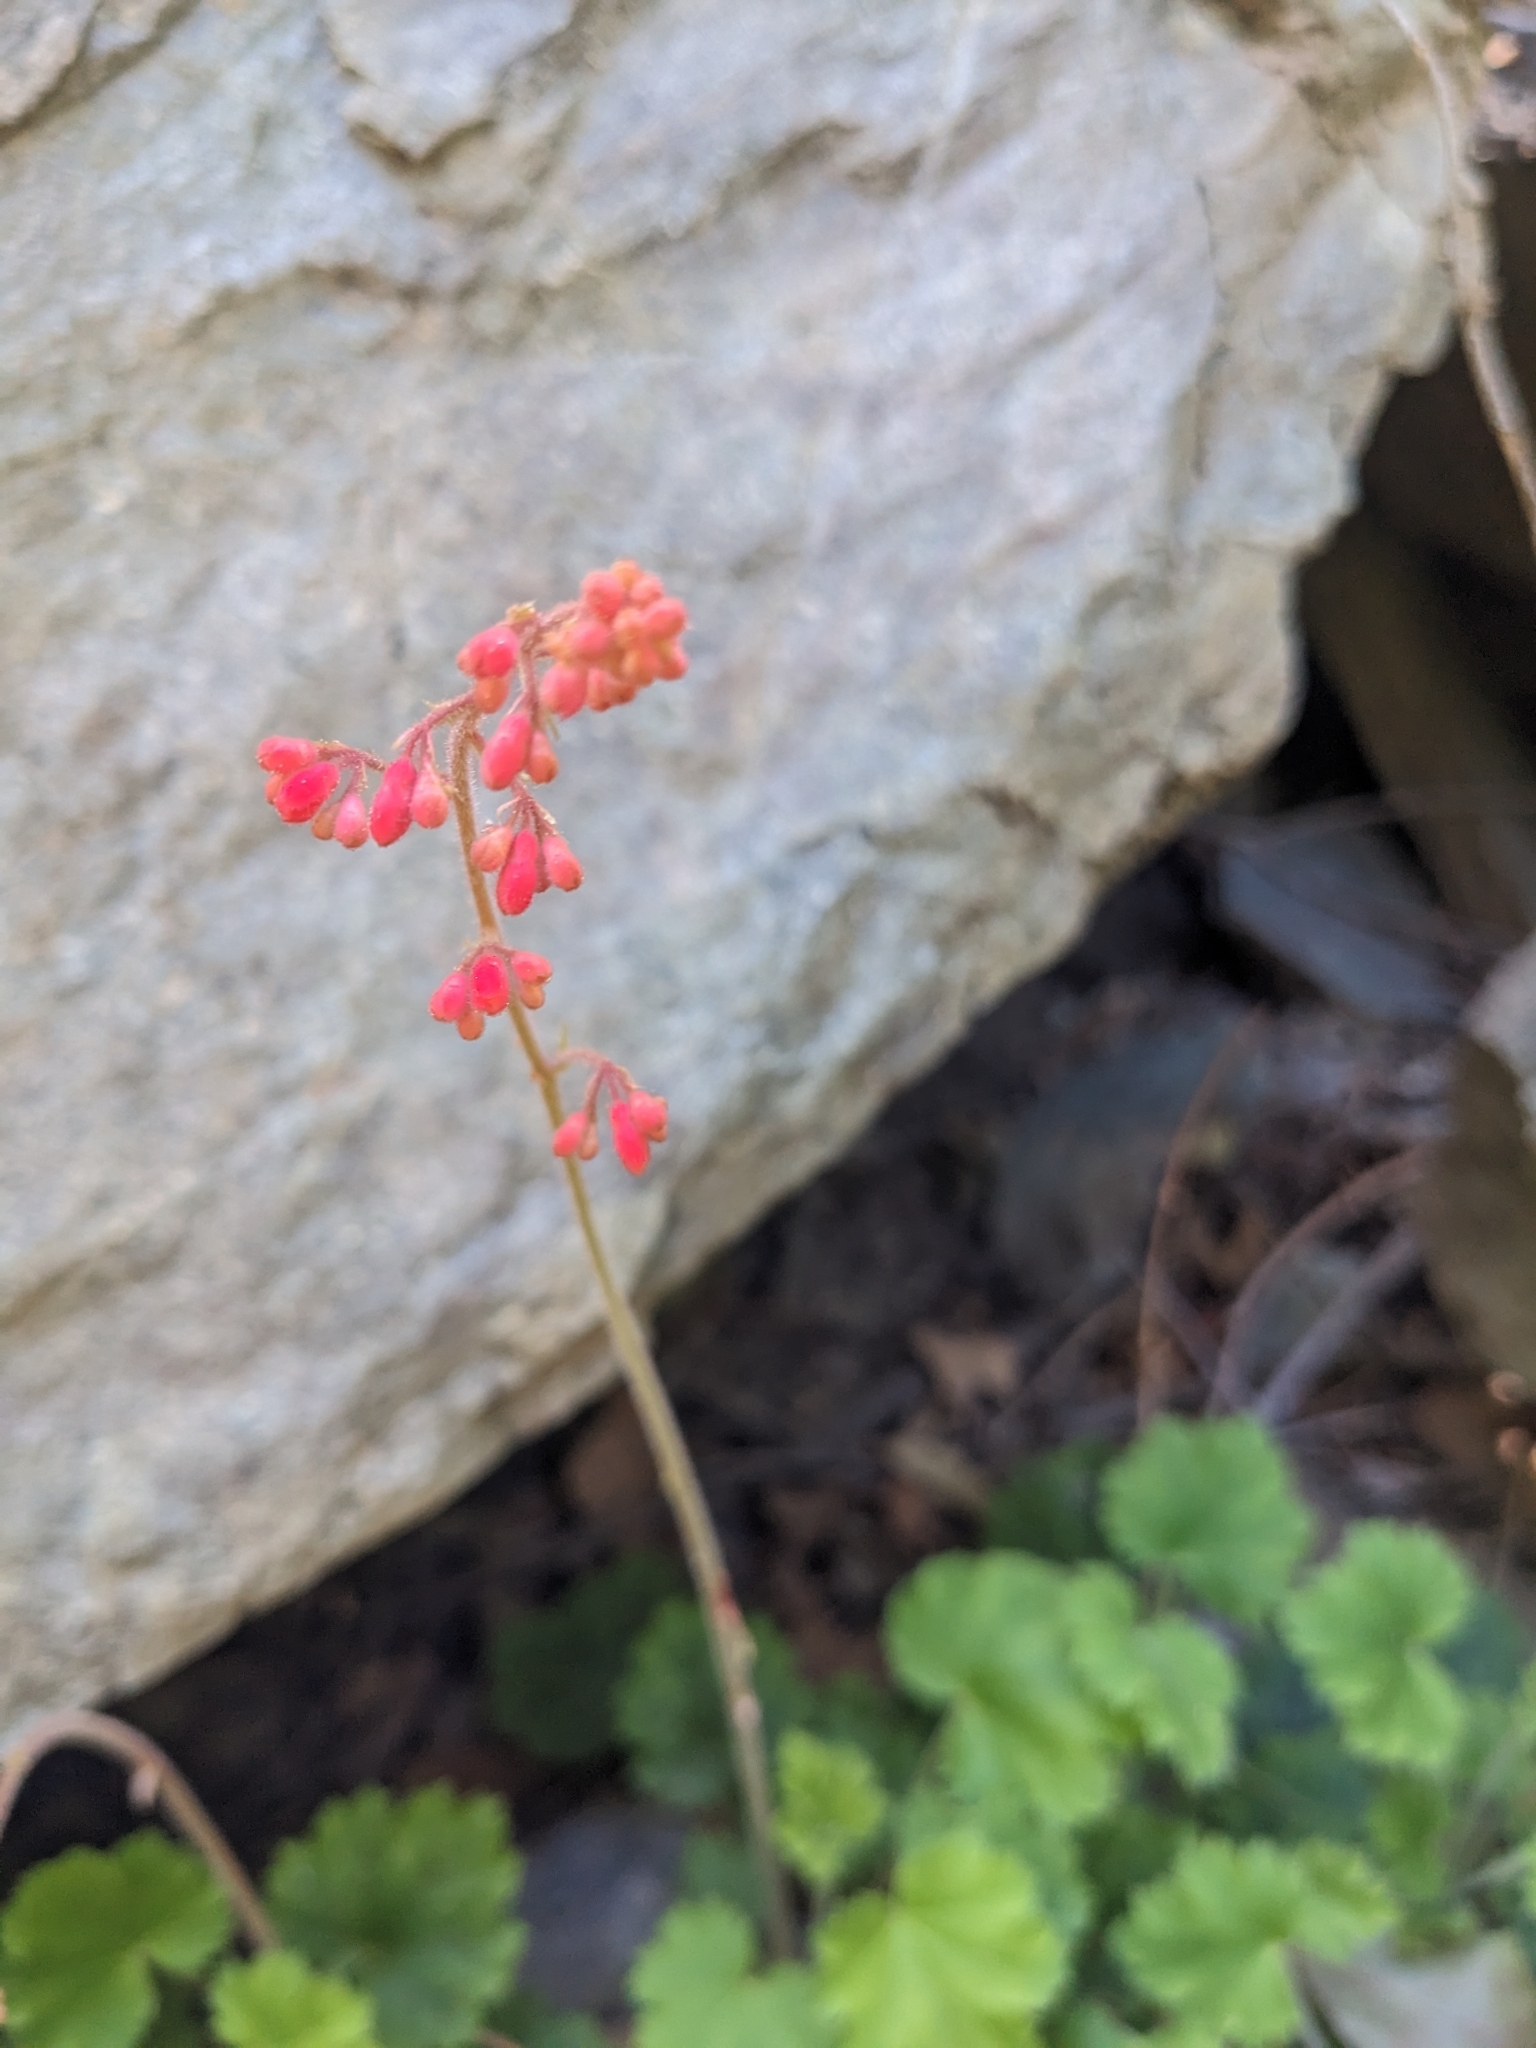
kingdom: Plantae
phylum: Tracheophyta
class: Magnoliopsida
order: Saxifragales
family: Saxifragaceae
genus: Heuchera
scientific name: Heuchera sanguinea
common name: Coralbells
